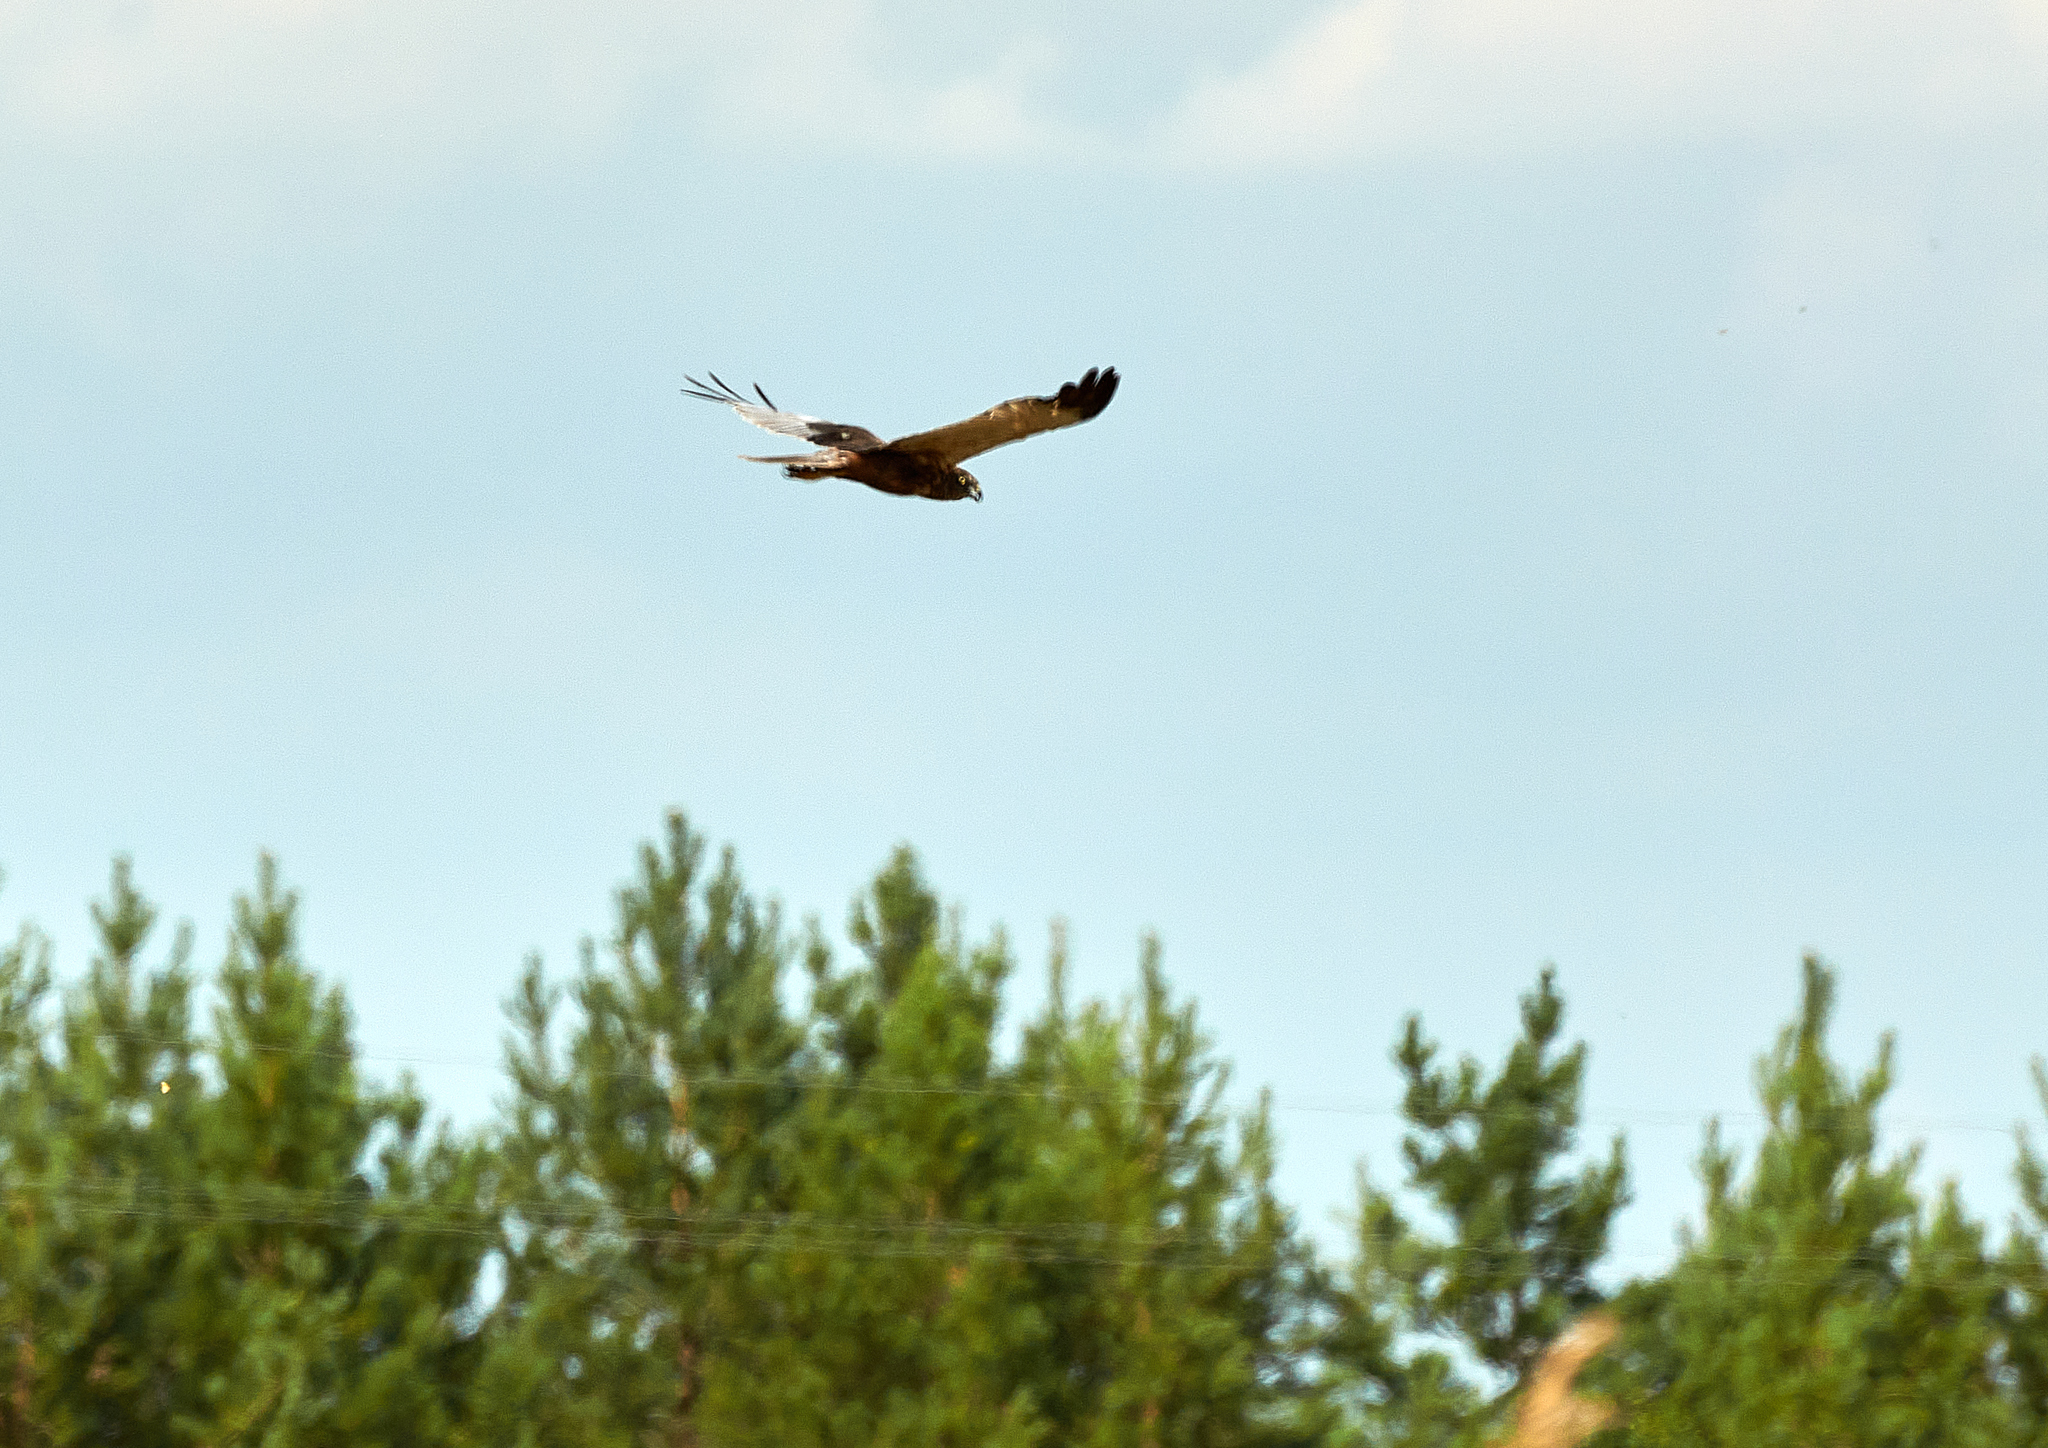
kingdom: Animalia
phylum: Chordata
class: Aves
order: Accipitriformes
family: Accipitridae
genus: Circus
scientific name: Circus aeruginosus
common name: Western marsh harrier
